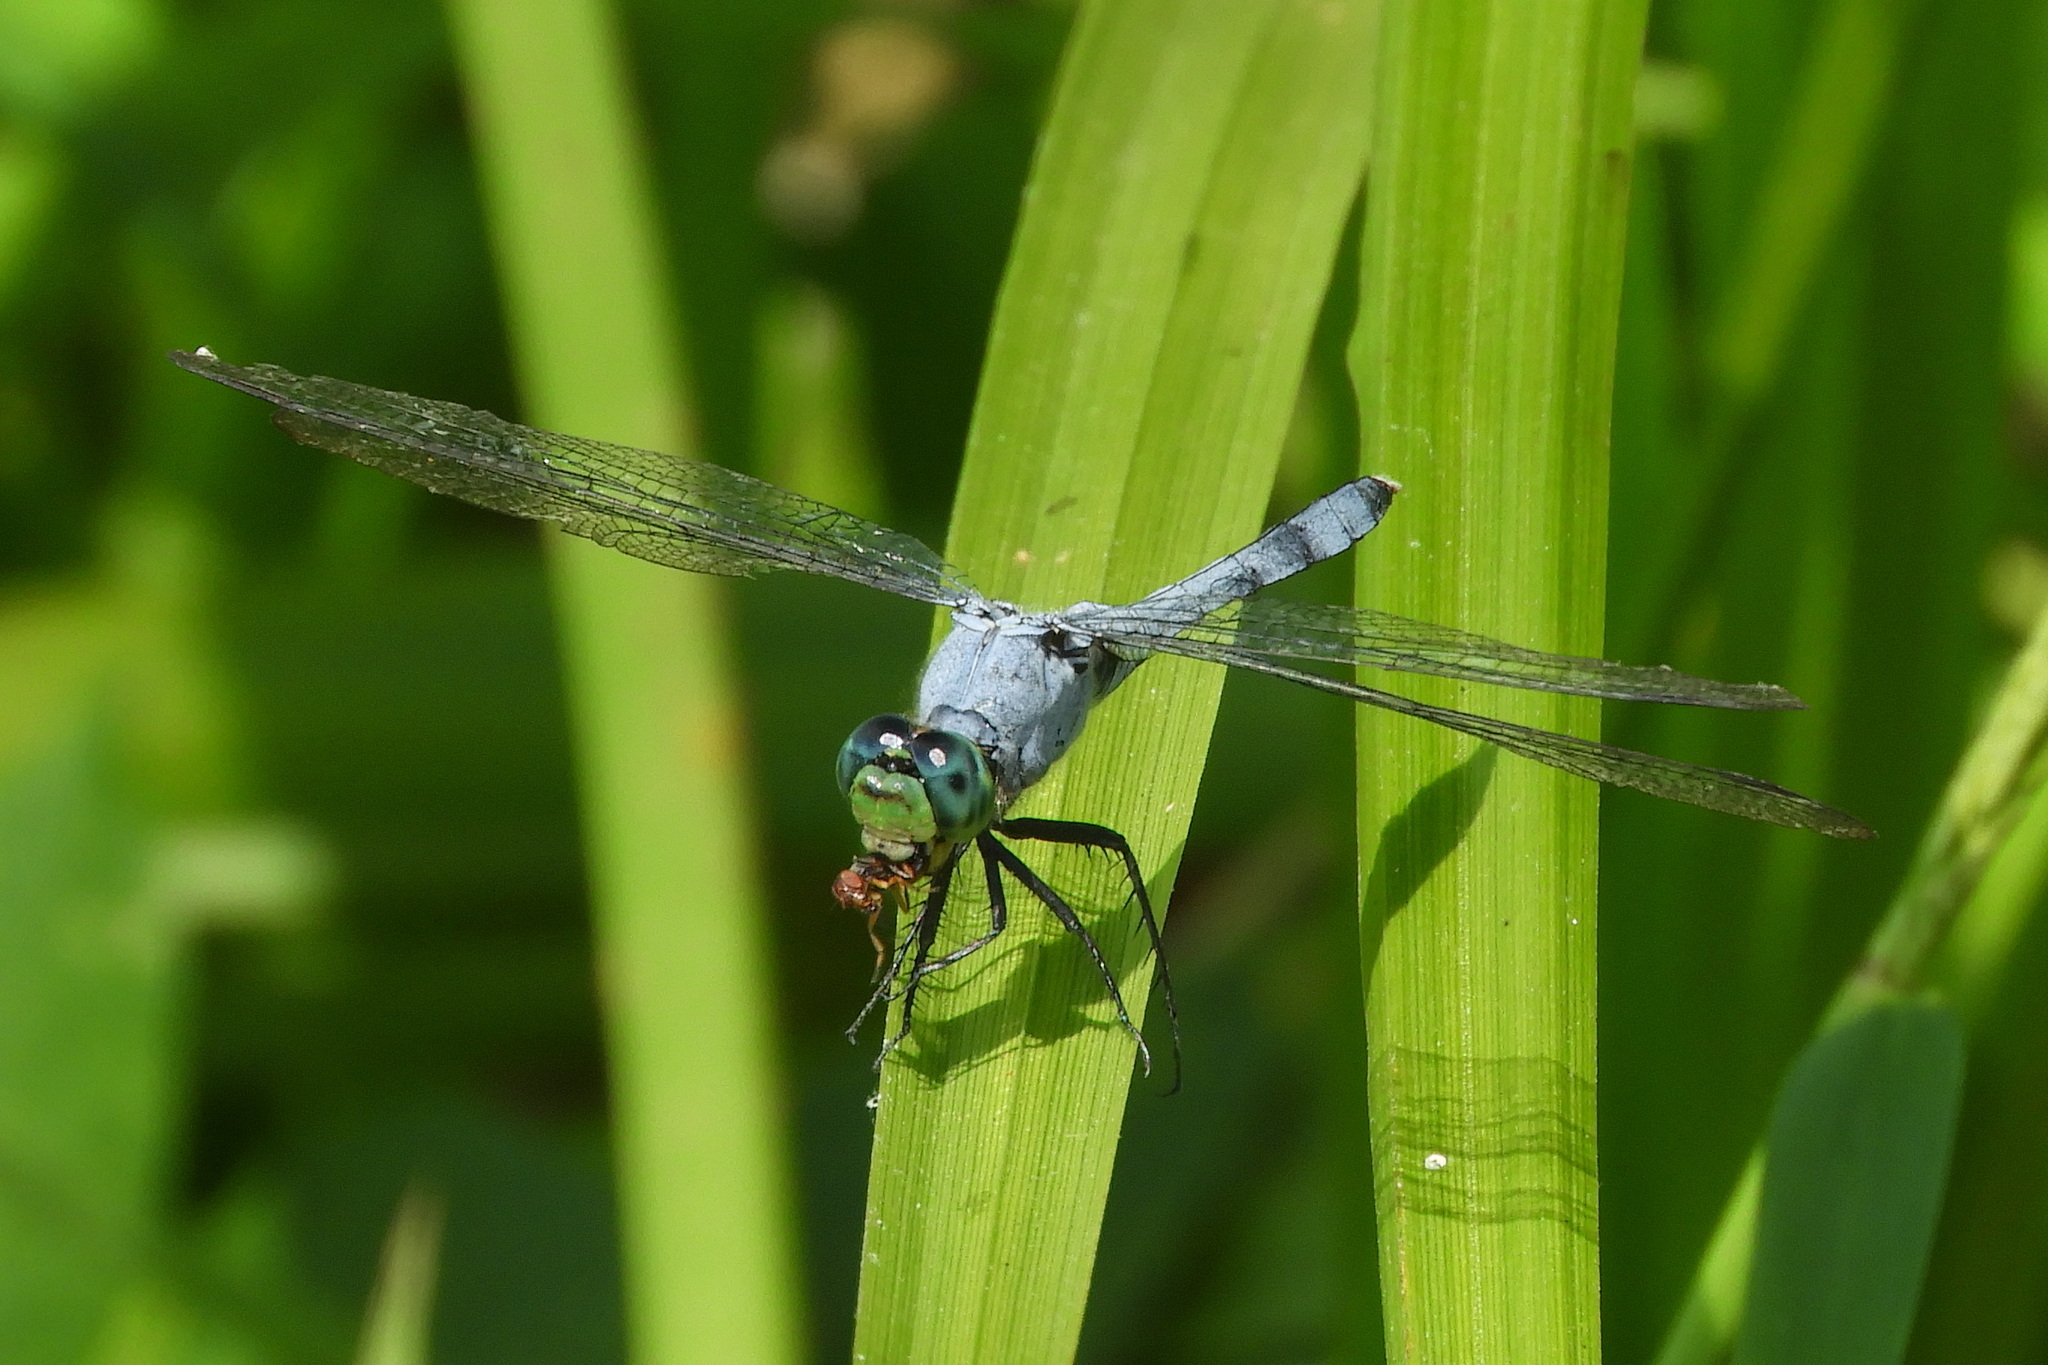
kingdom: Animalia
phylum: Arthropoda
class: Insecta
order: Odonata
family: Libellulidae
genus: Erythemis
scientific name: Erythemis simplicicollis
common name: Eastern pondhawk
